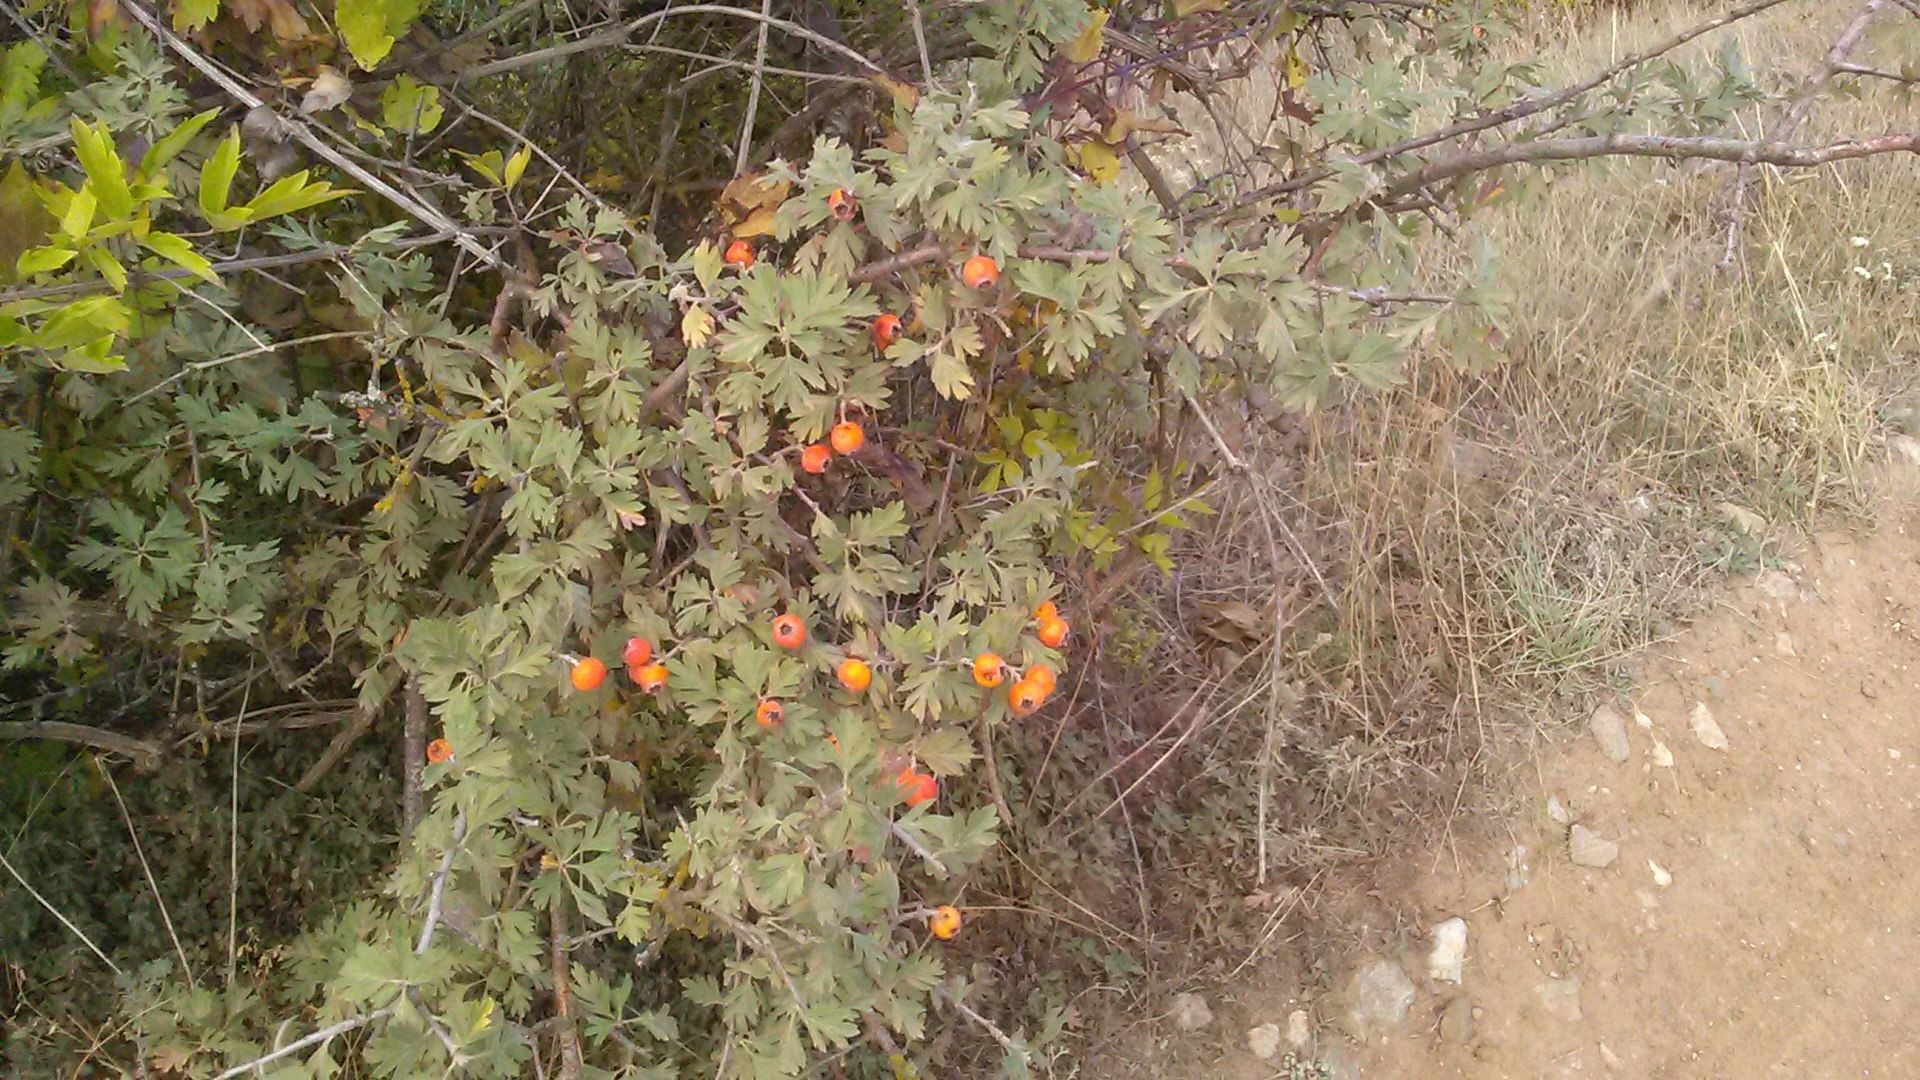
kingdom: Plantae
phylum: Tracheophyta
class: Magnoliopsida
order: Rosales
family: Rosaceae
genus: Crataegus
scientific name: Crataegus orientalis
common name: Oriental hawthorn
